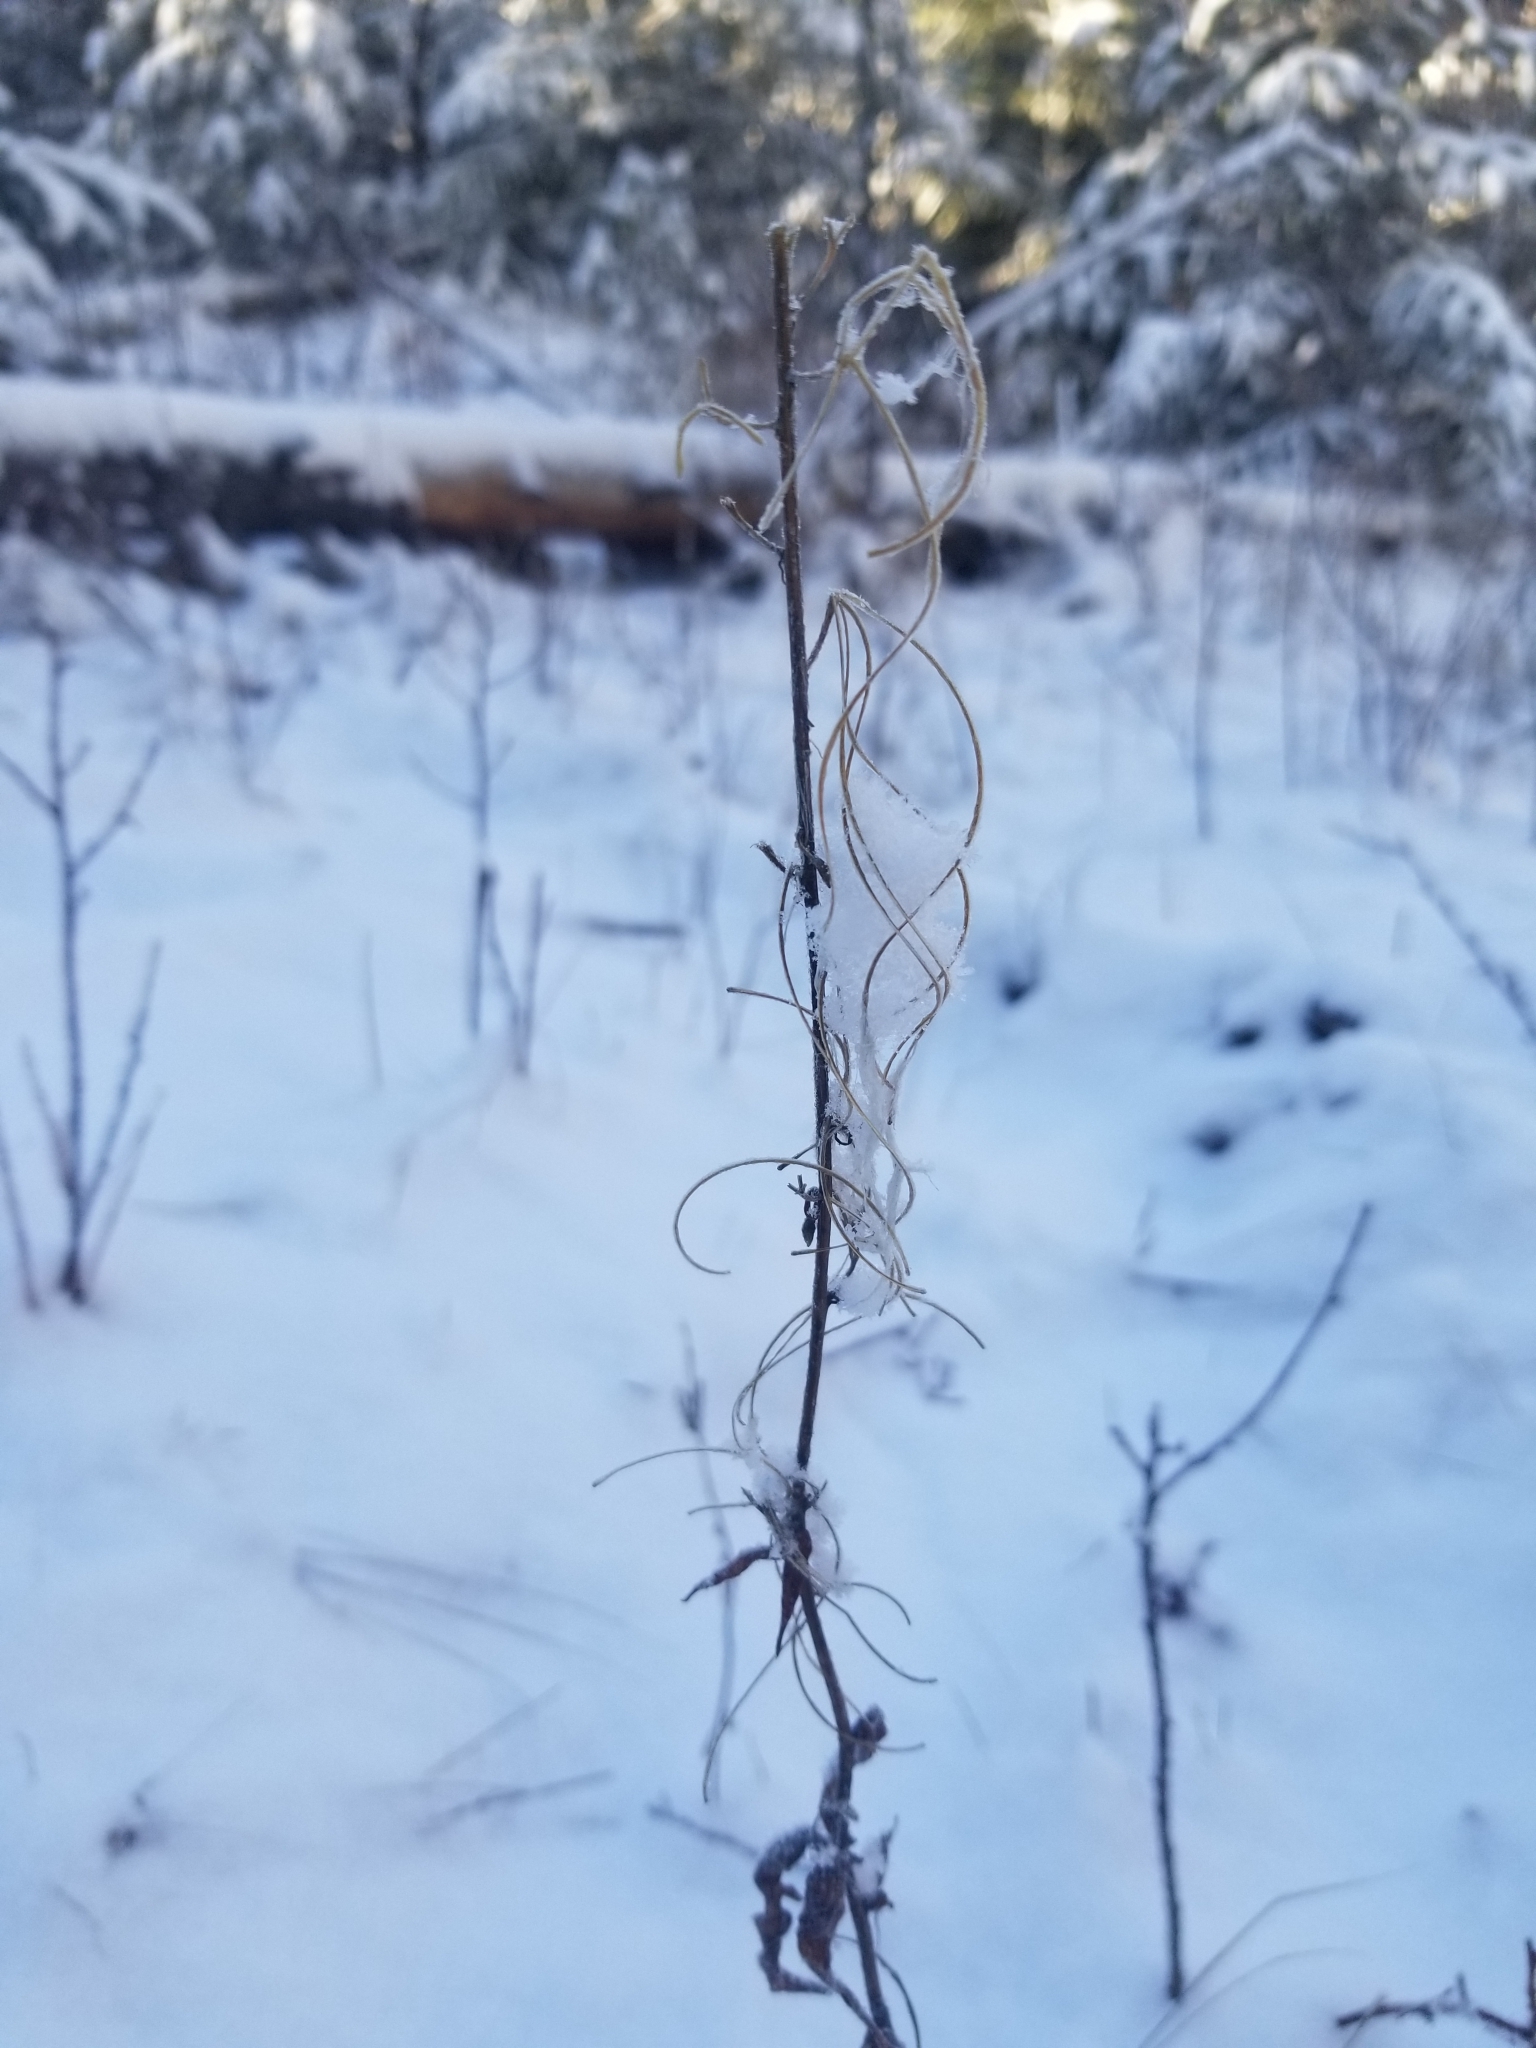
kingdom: Plantae
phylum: Tracheophyta
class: Magnoliopsida
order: Myrtales
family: Onagraceae
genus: Chamaenerion
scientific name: Chamaenerion angustifolium
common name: Fireweed
